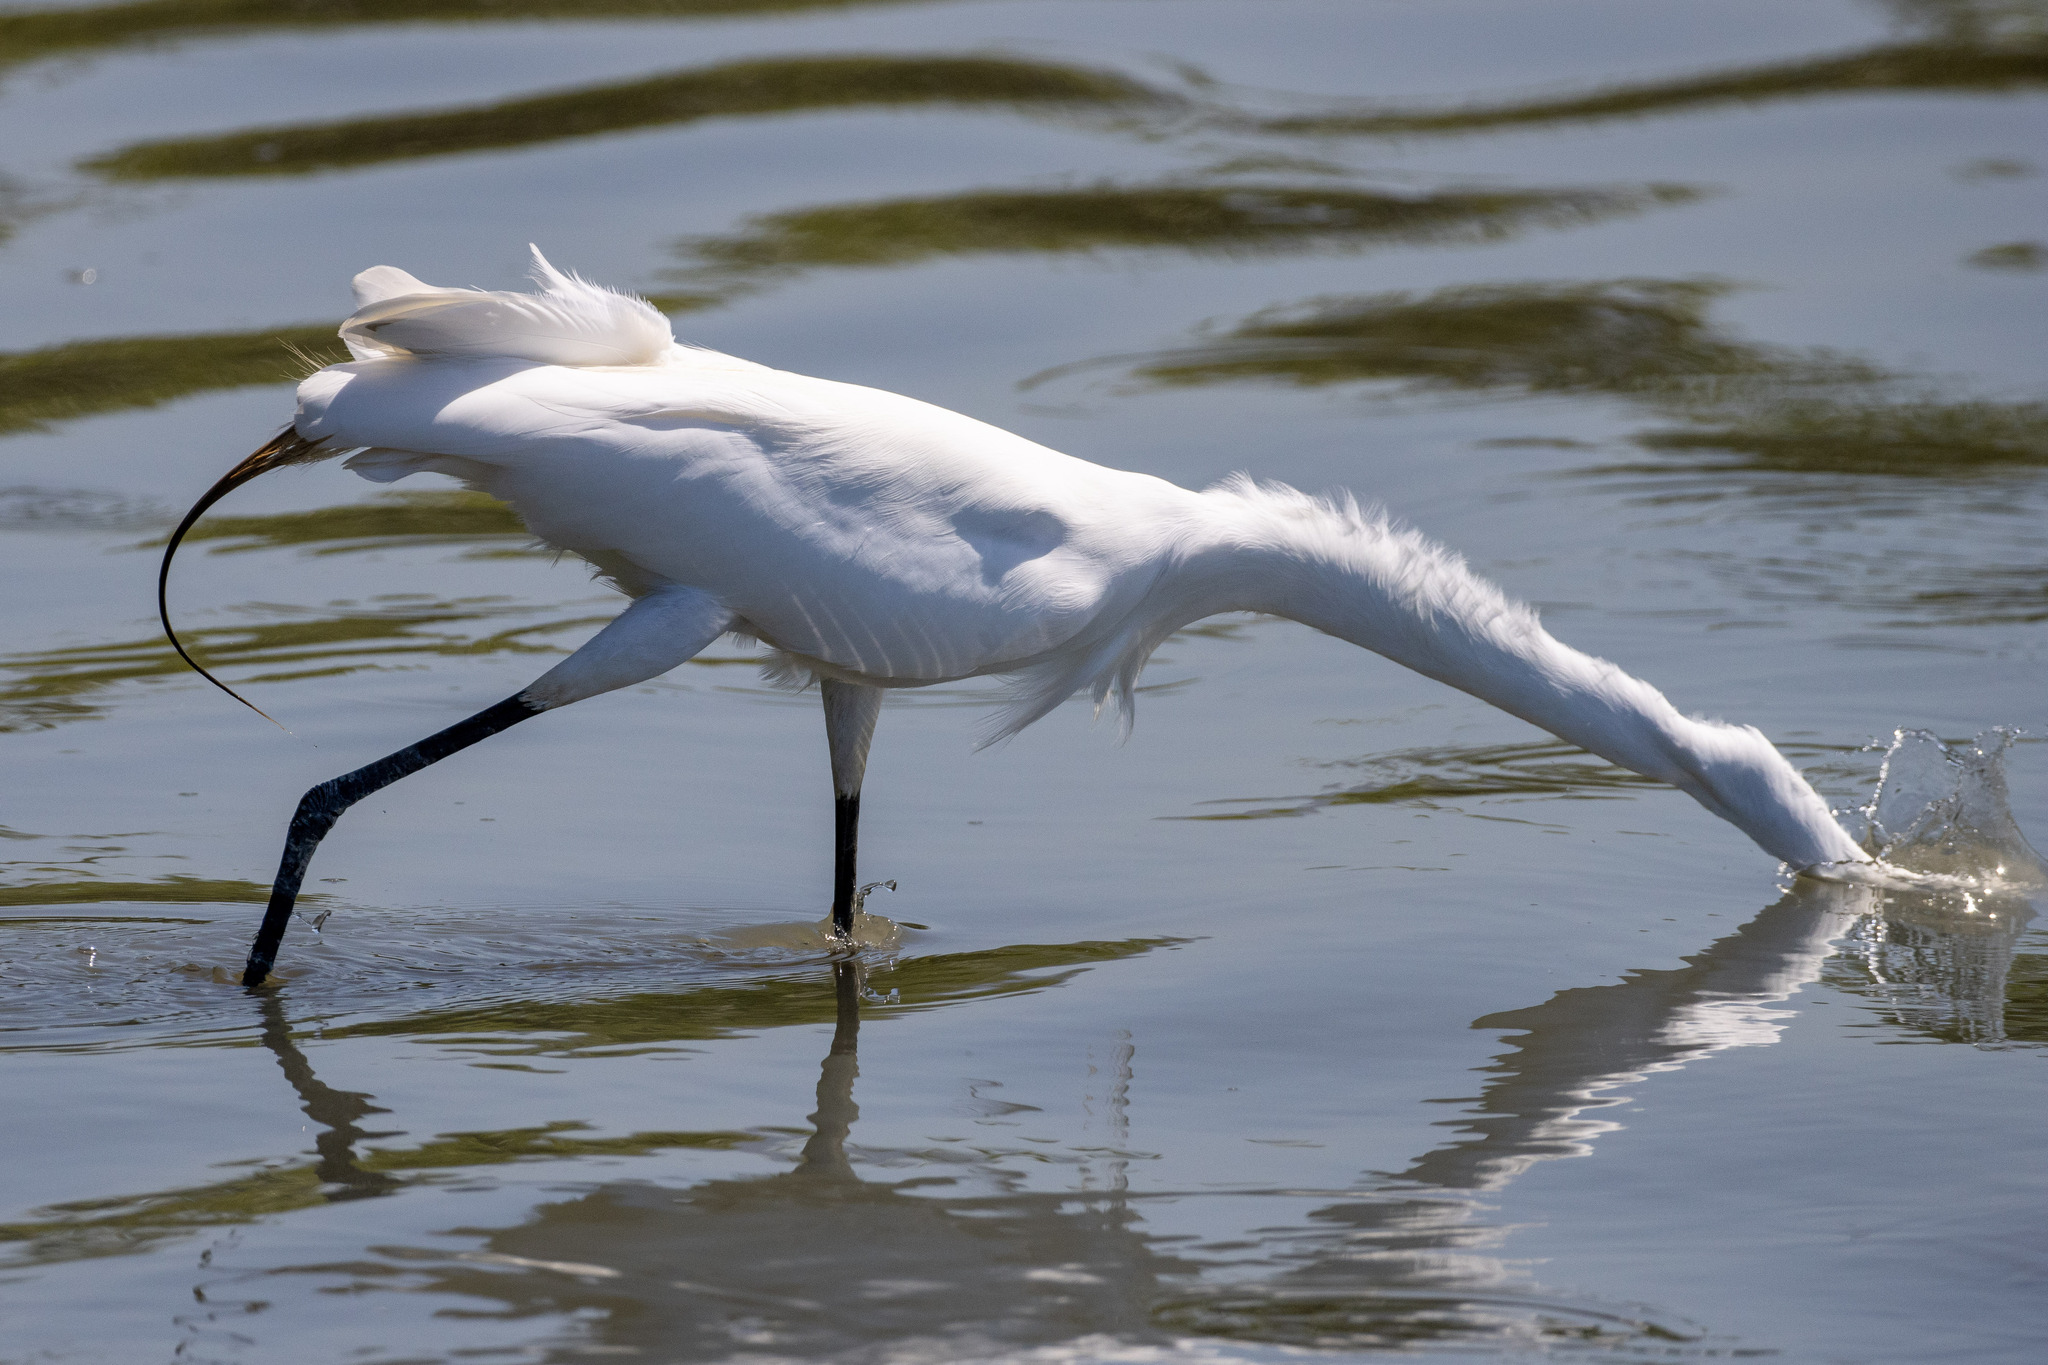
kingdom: Animalia
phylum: Chordata
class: Aves
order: Pelecaniformes
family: Ardeidae
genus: Ardea
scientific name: Ardea alba
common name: Great egret
